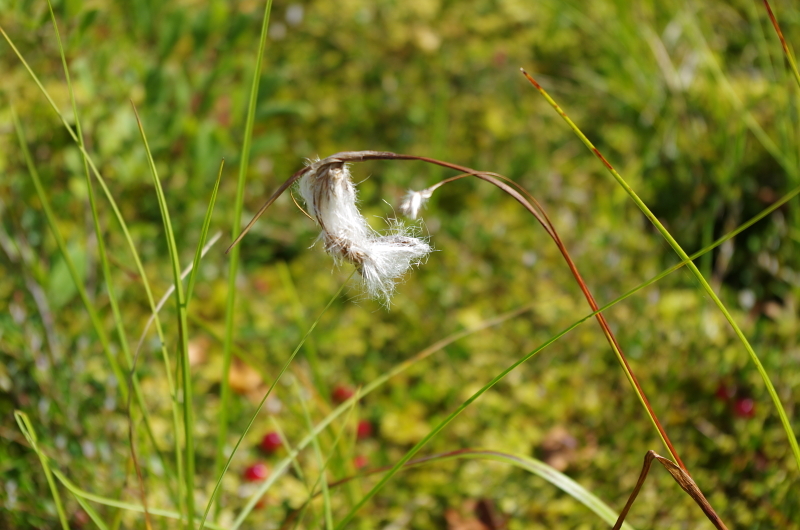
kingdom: Plantae
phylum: Tracheophyta
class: Liliopsida
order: Poales
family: Cyperaceae
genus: Eriophorum
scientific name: Eriophorum angustifolium
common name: Common cottongrass
